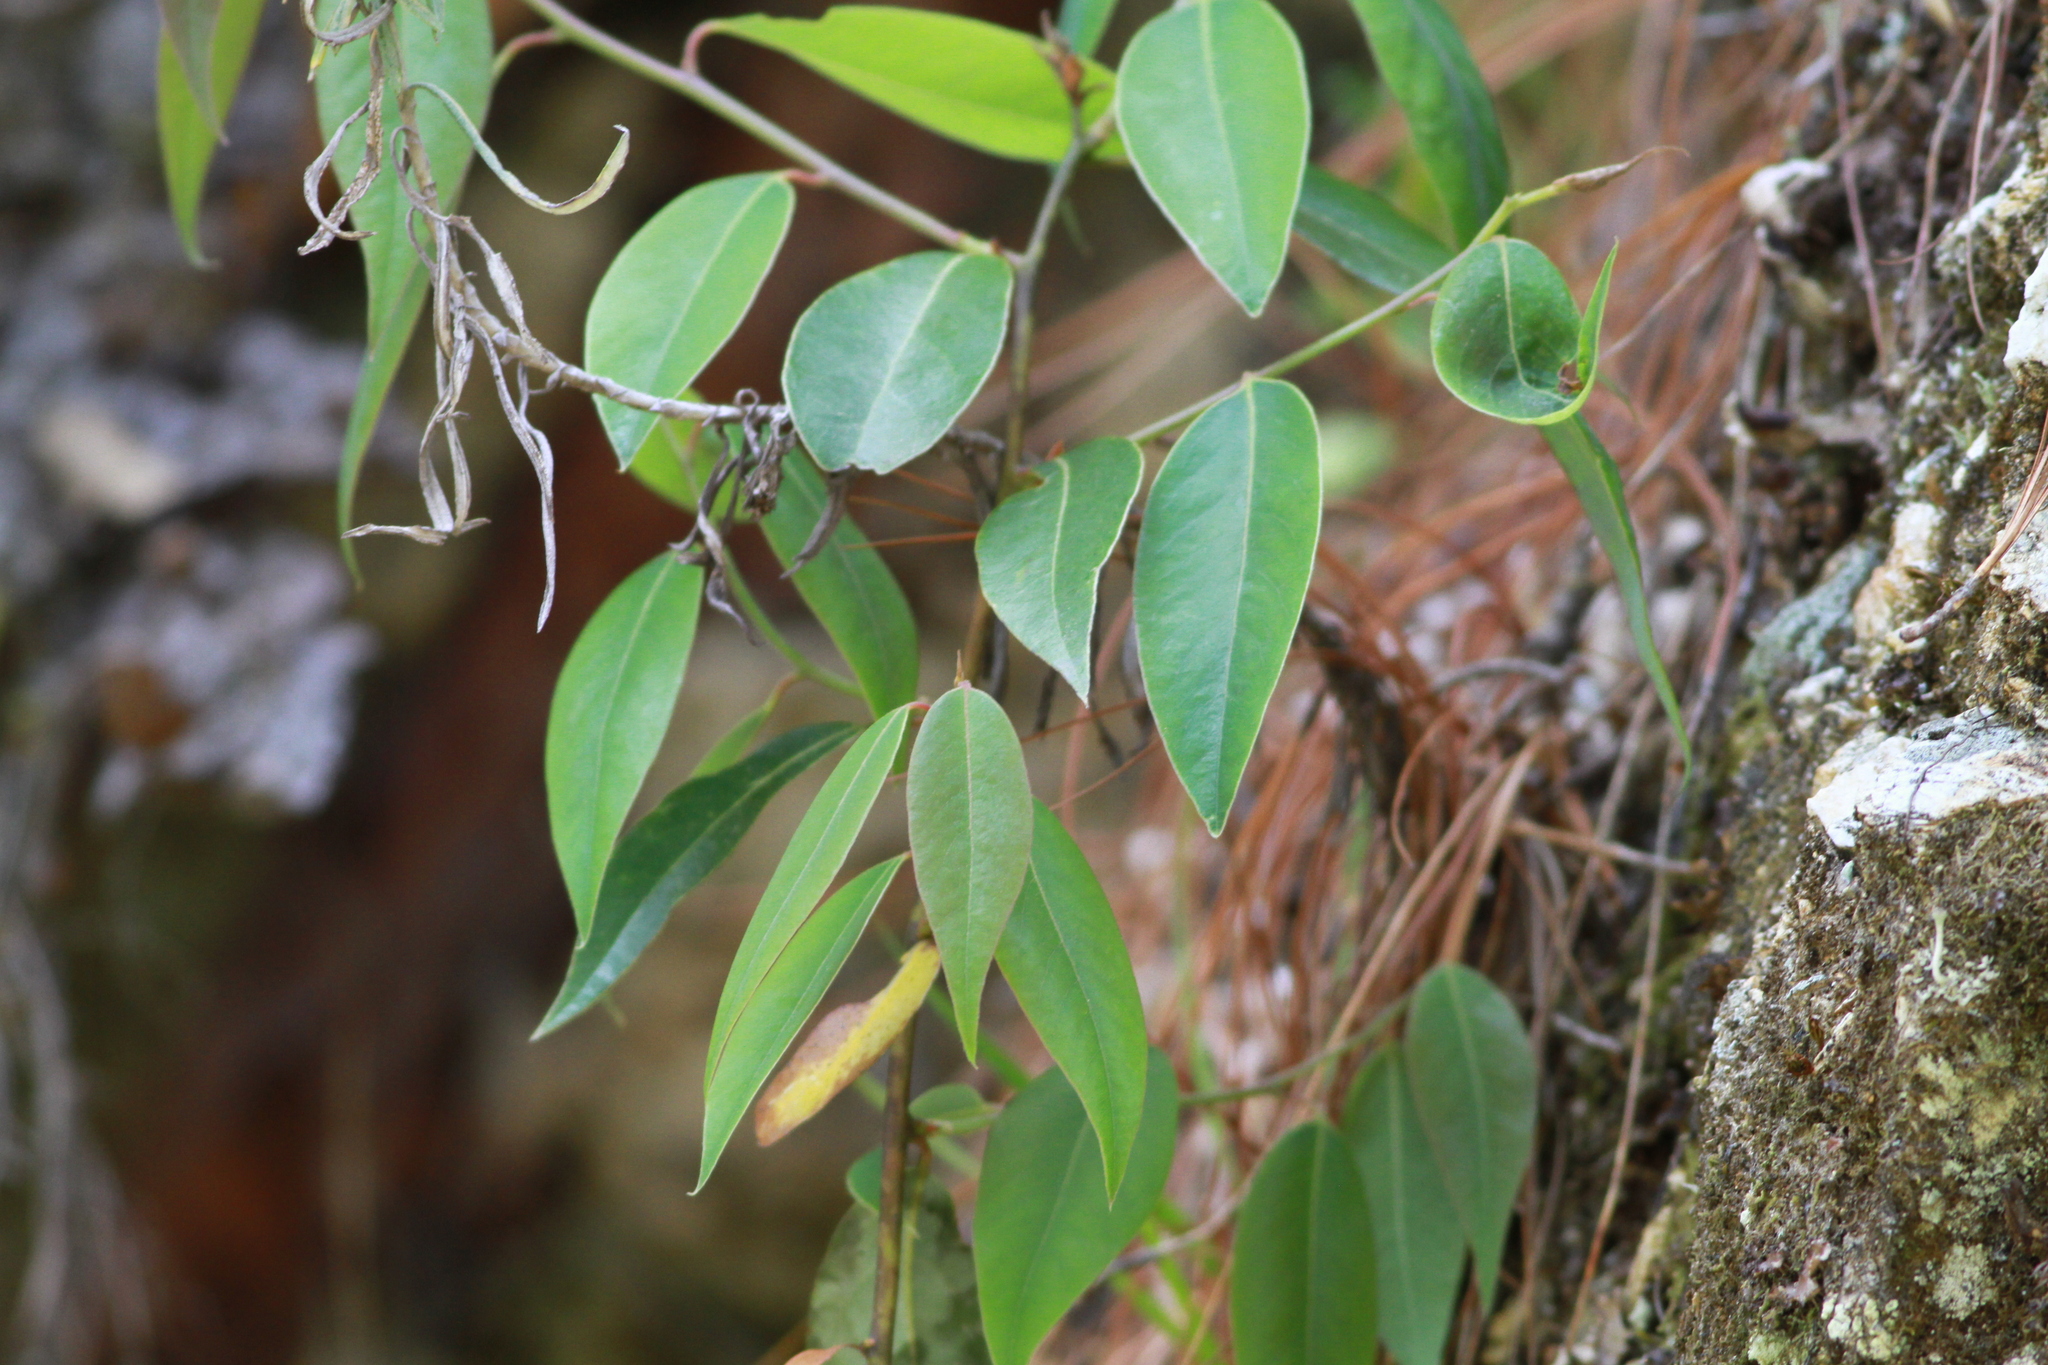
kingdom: Plantae
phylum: Tracheophyta
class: Magnoliopsida
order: Laurales
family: Lauraceae
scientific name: Lauraceae
